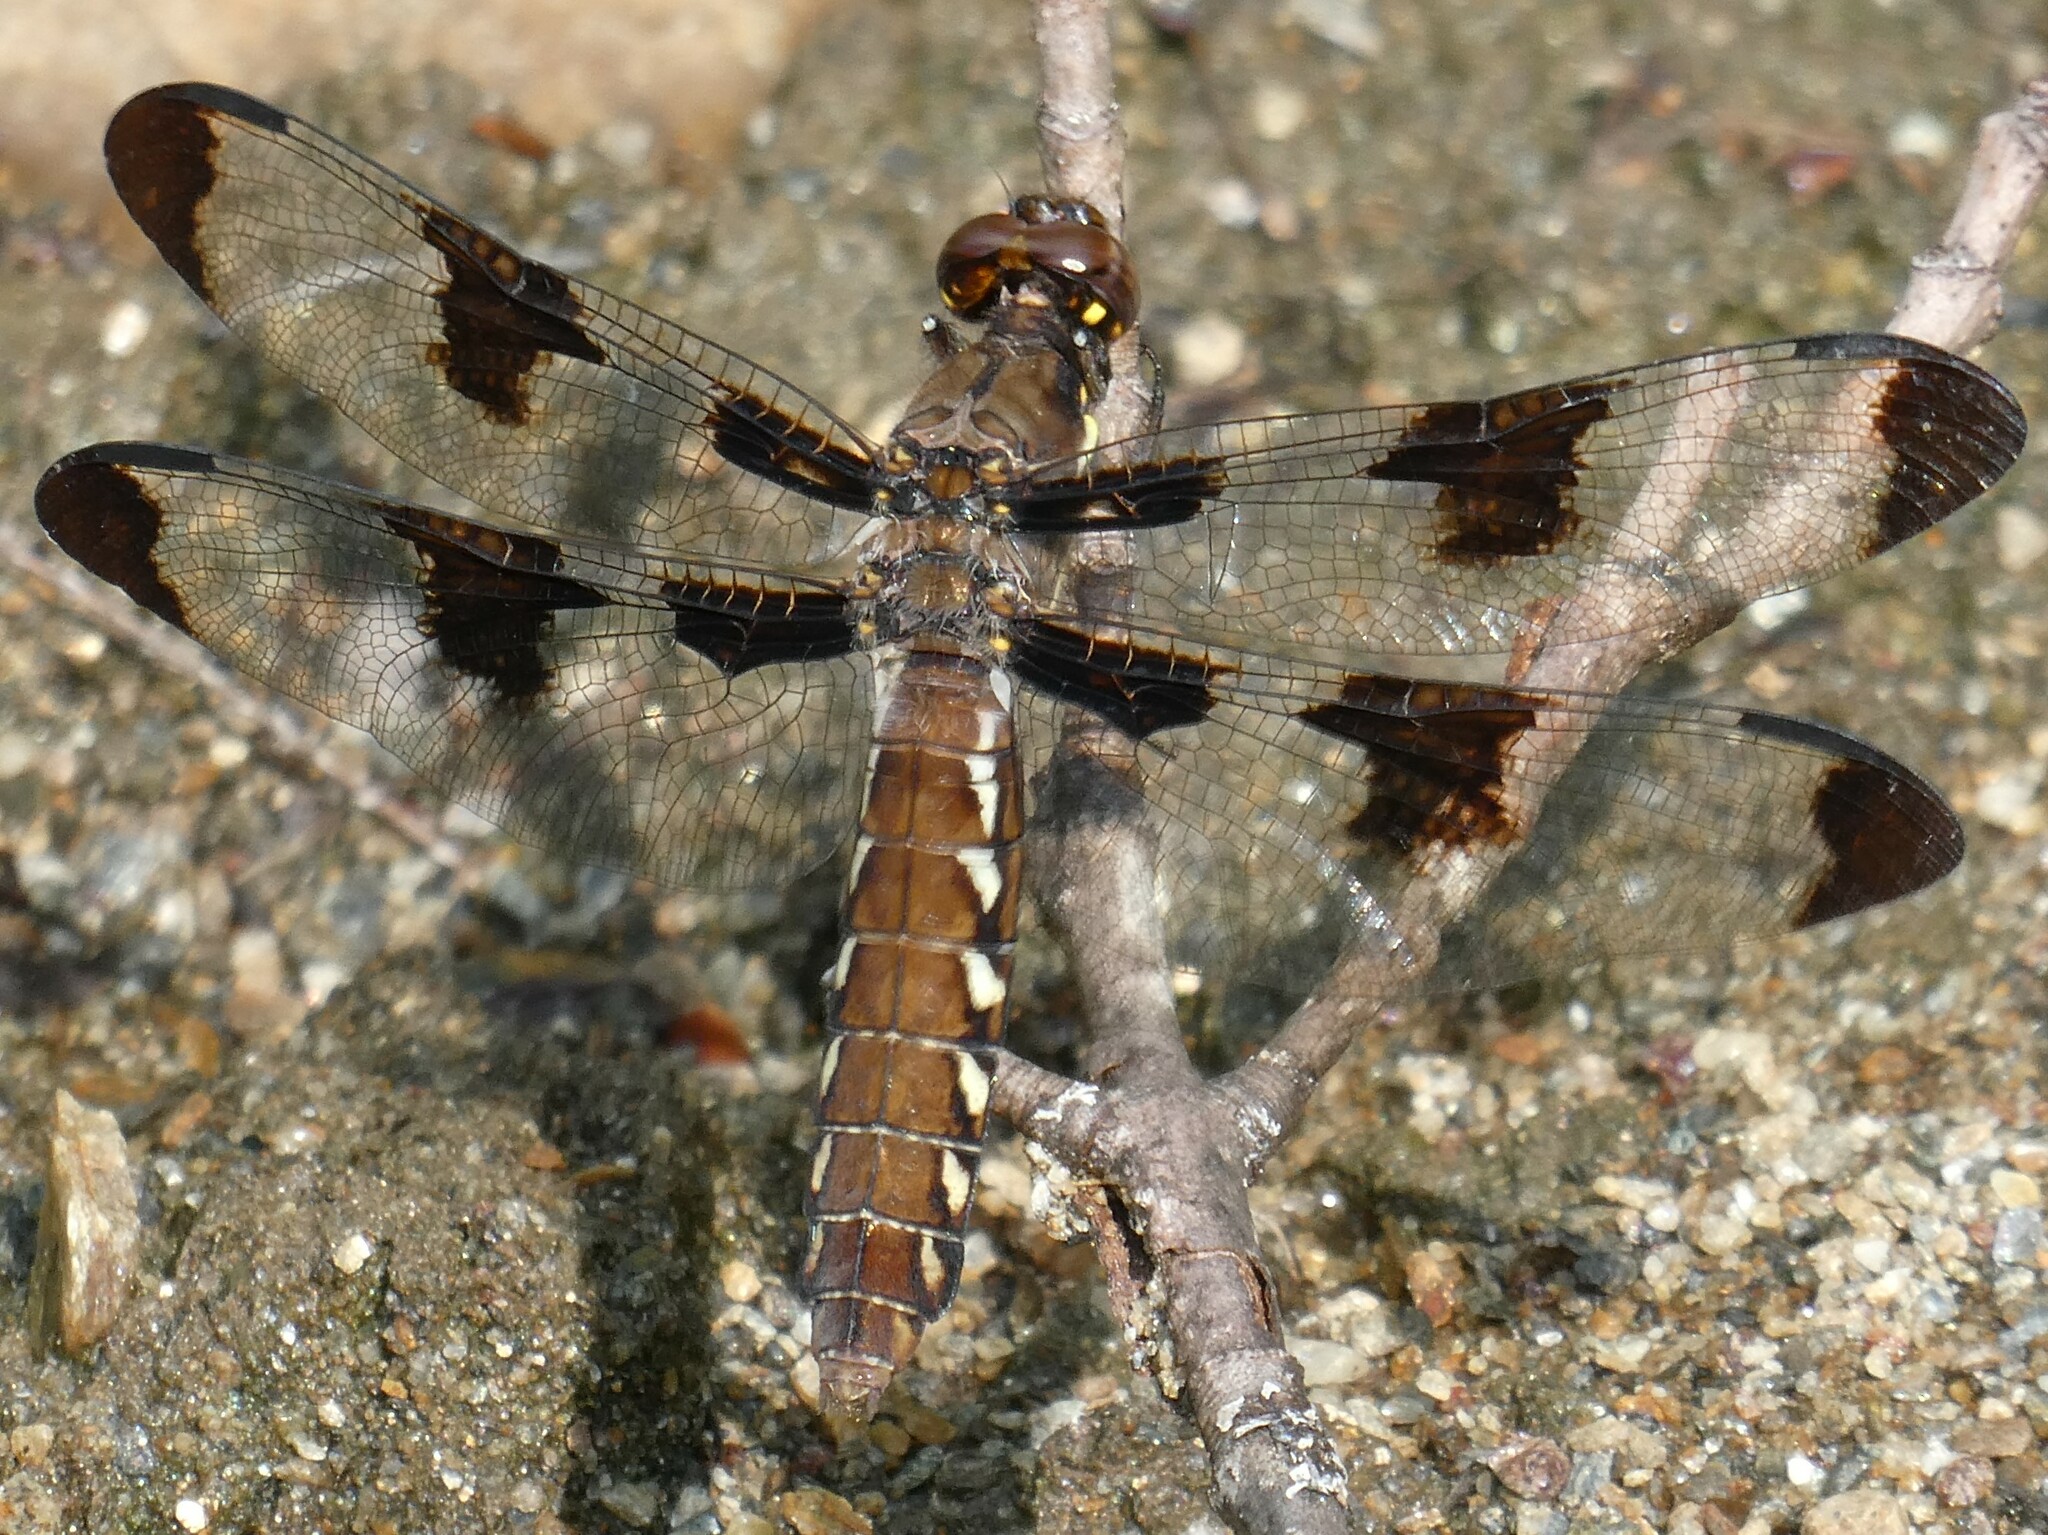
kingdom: Animalia
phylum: Arthropoda
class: Insecta
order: Odonata
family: Libellulidae
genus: Plathemis
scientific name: Plathemis lydia
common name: Common whitetail
